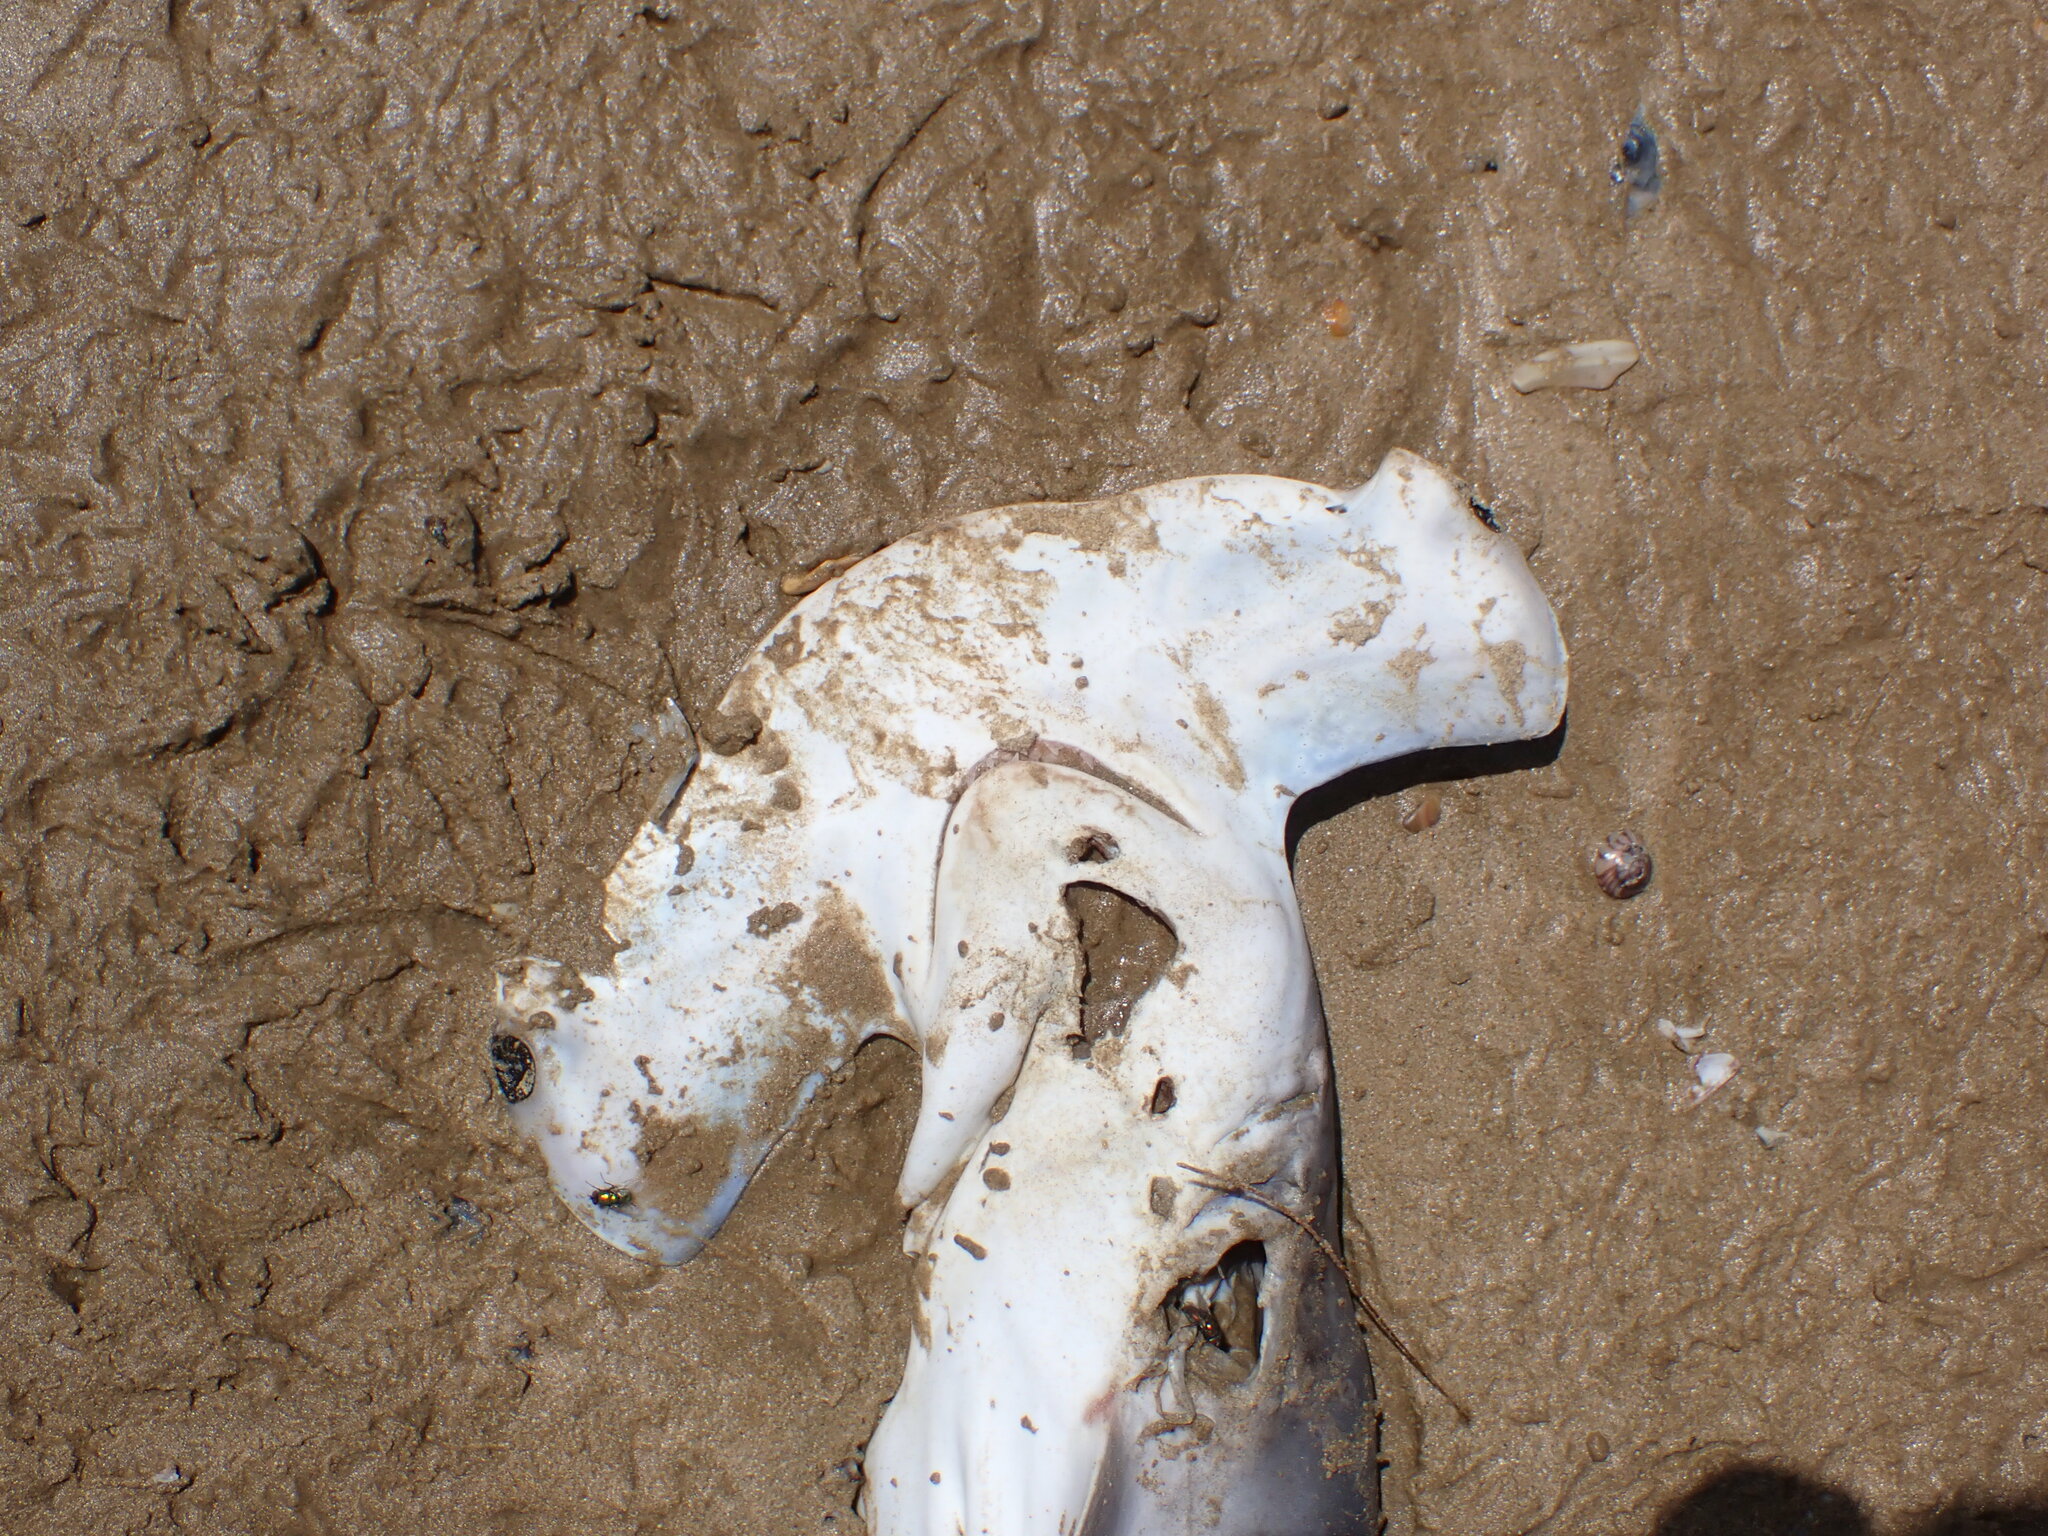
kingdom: Animalia
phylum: Chordata
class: Elasmobranchii
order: Carcharhiniformes
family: Sphyrnidae
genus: Sphyrna
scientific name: Sphyrna zygaena
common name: Smooth hammerhead
